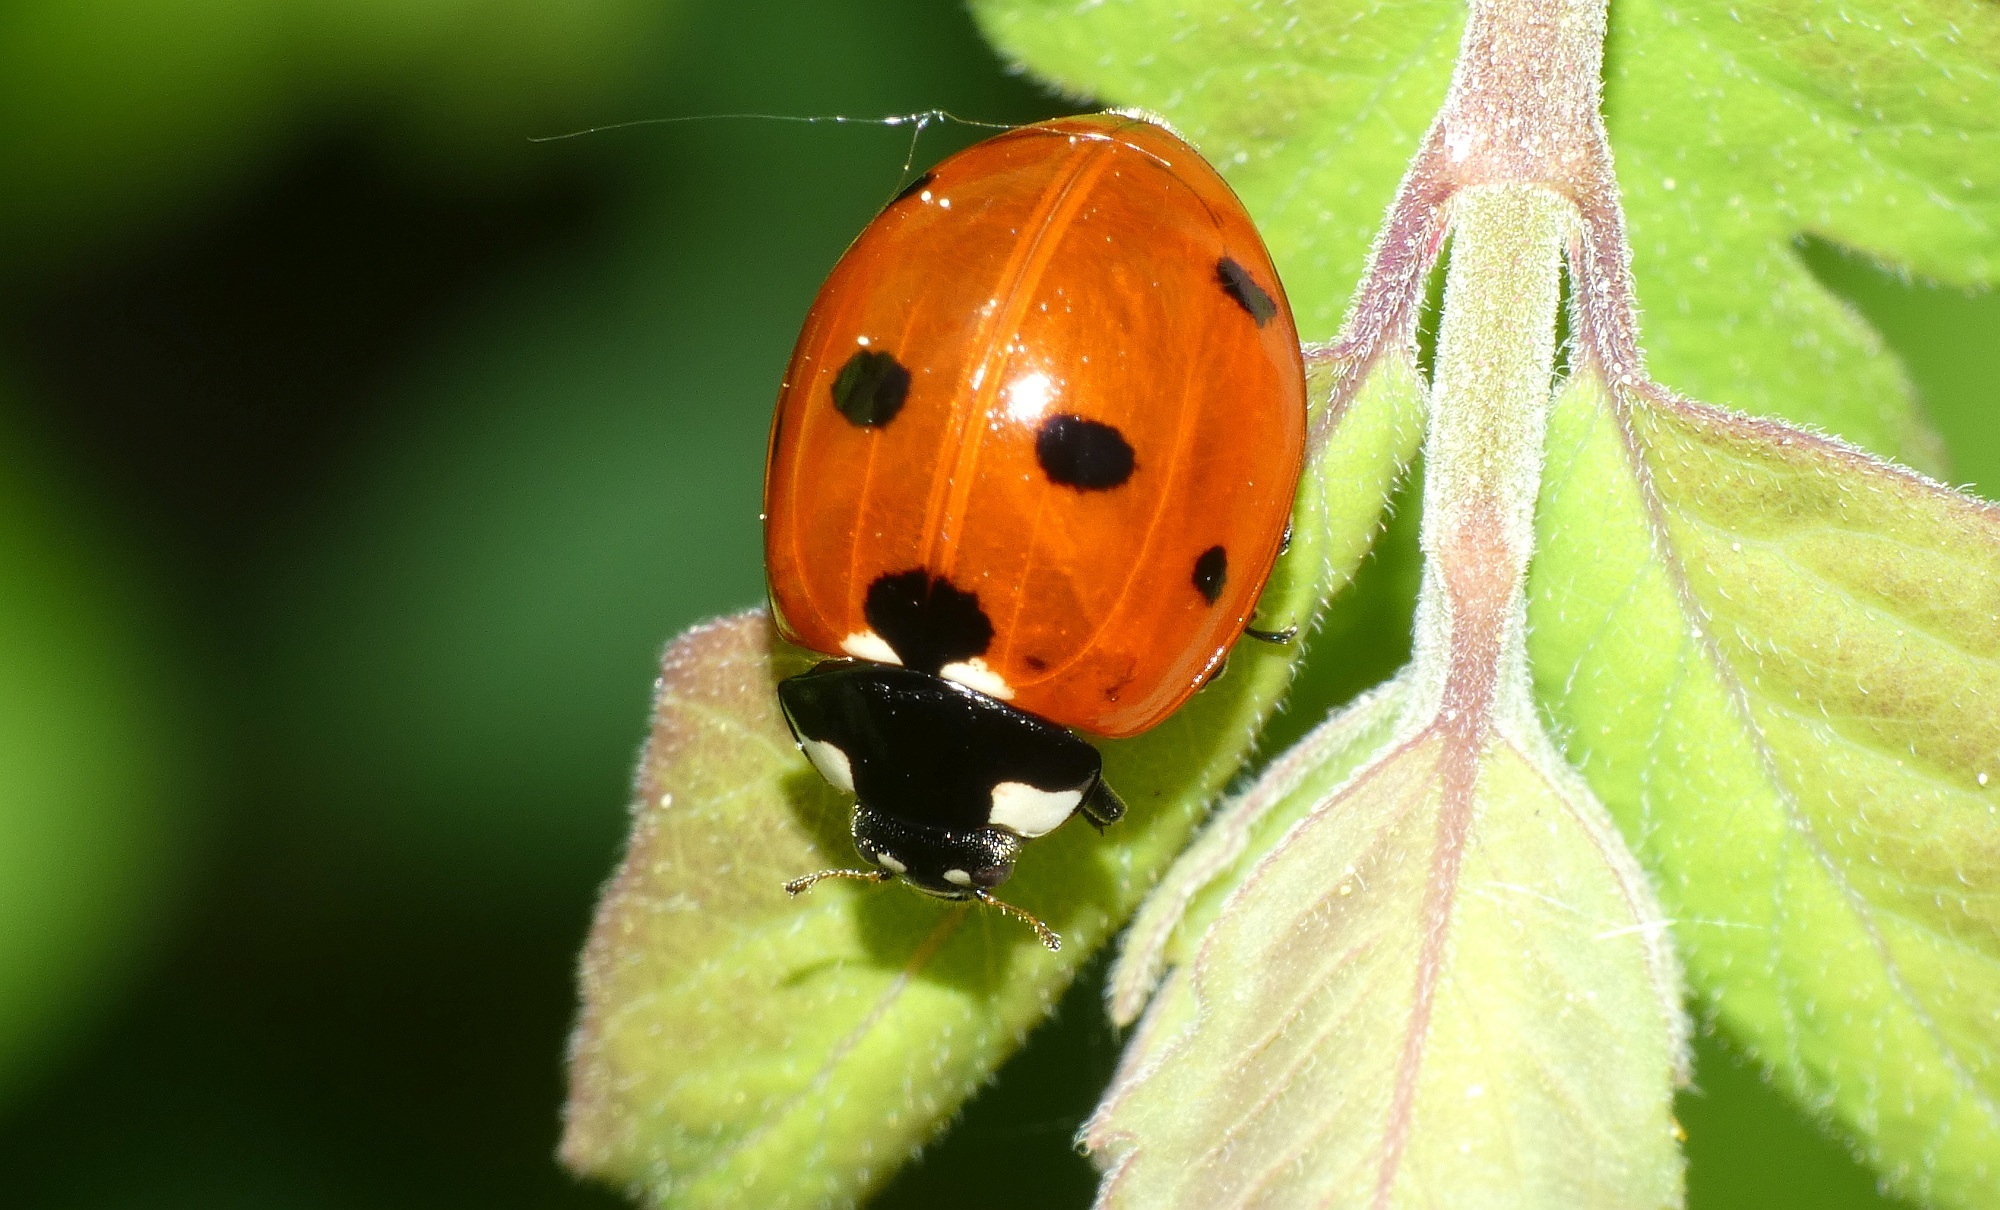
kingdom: Animalia
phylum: Arthropoda
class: Insecta
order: Coleoptera
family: Coccinellidae
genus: Coccinella
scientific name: Coccinella septempunctata
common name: Sevenspotted lady beetle
